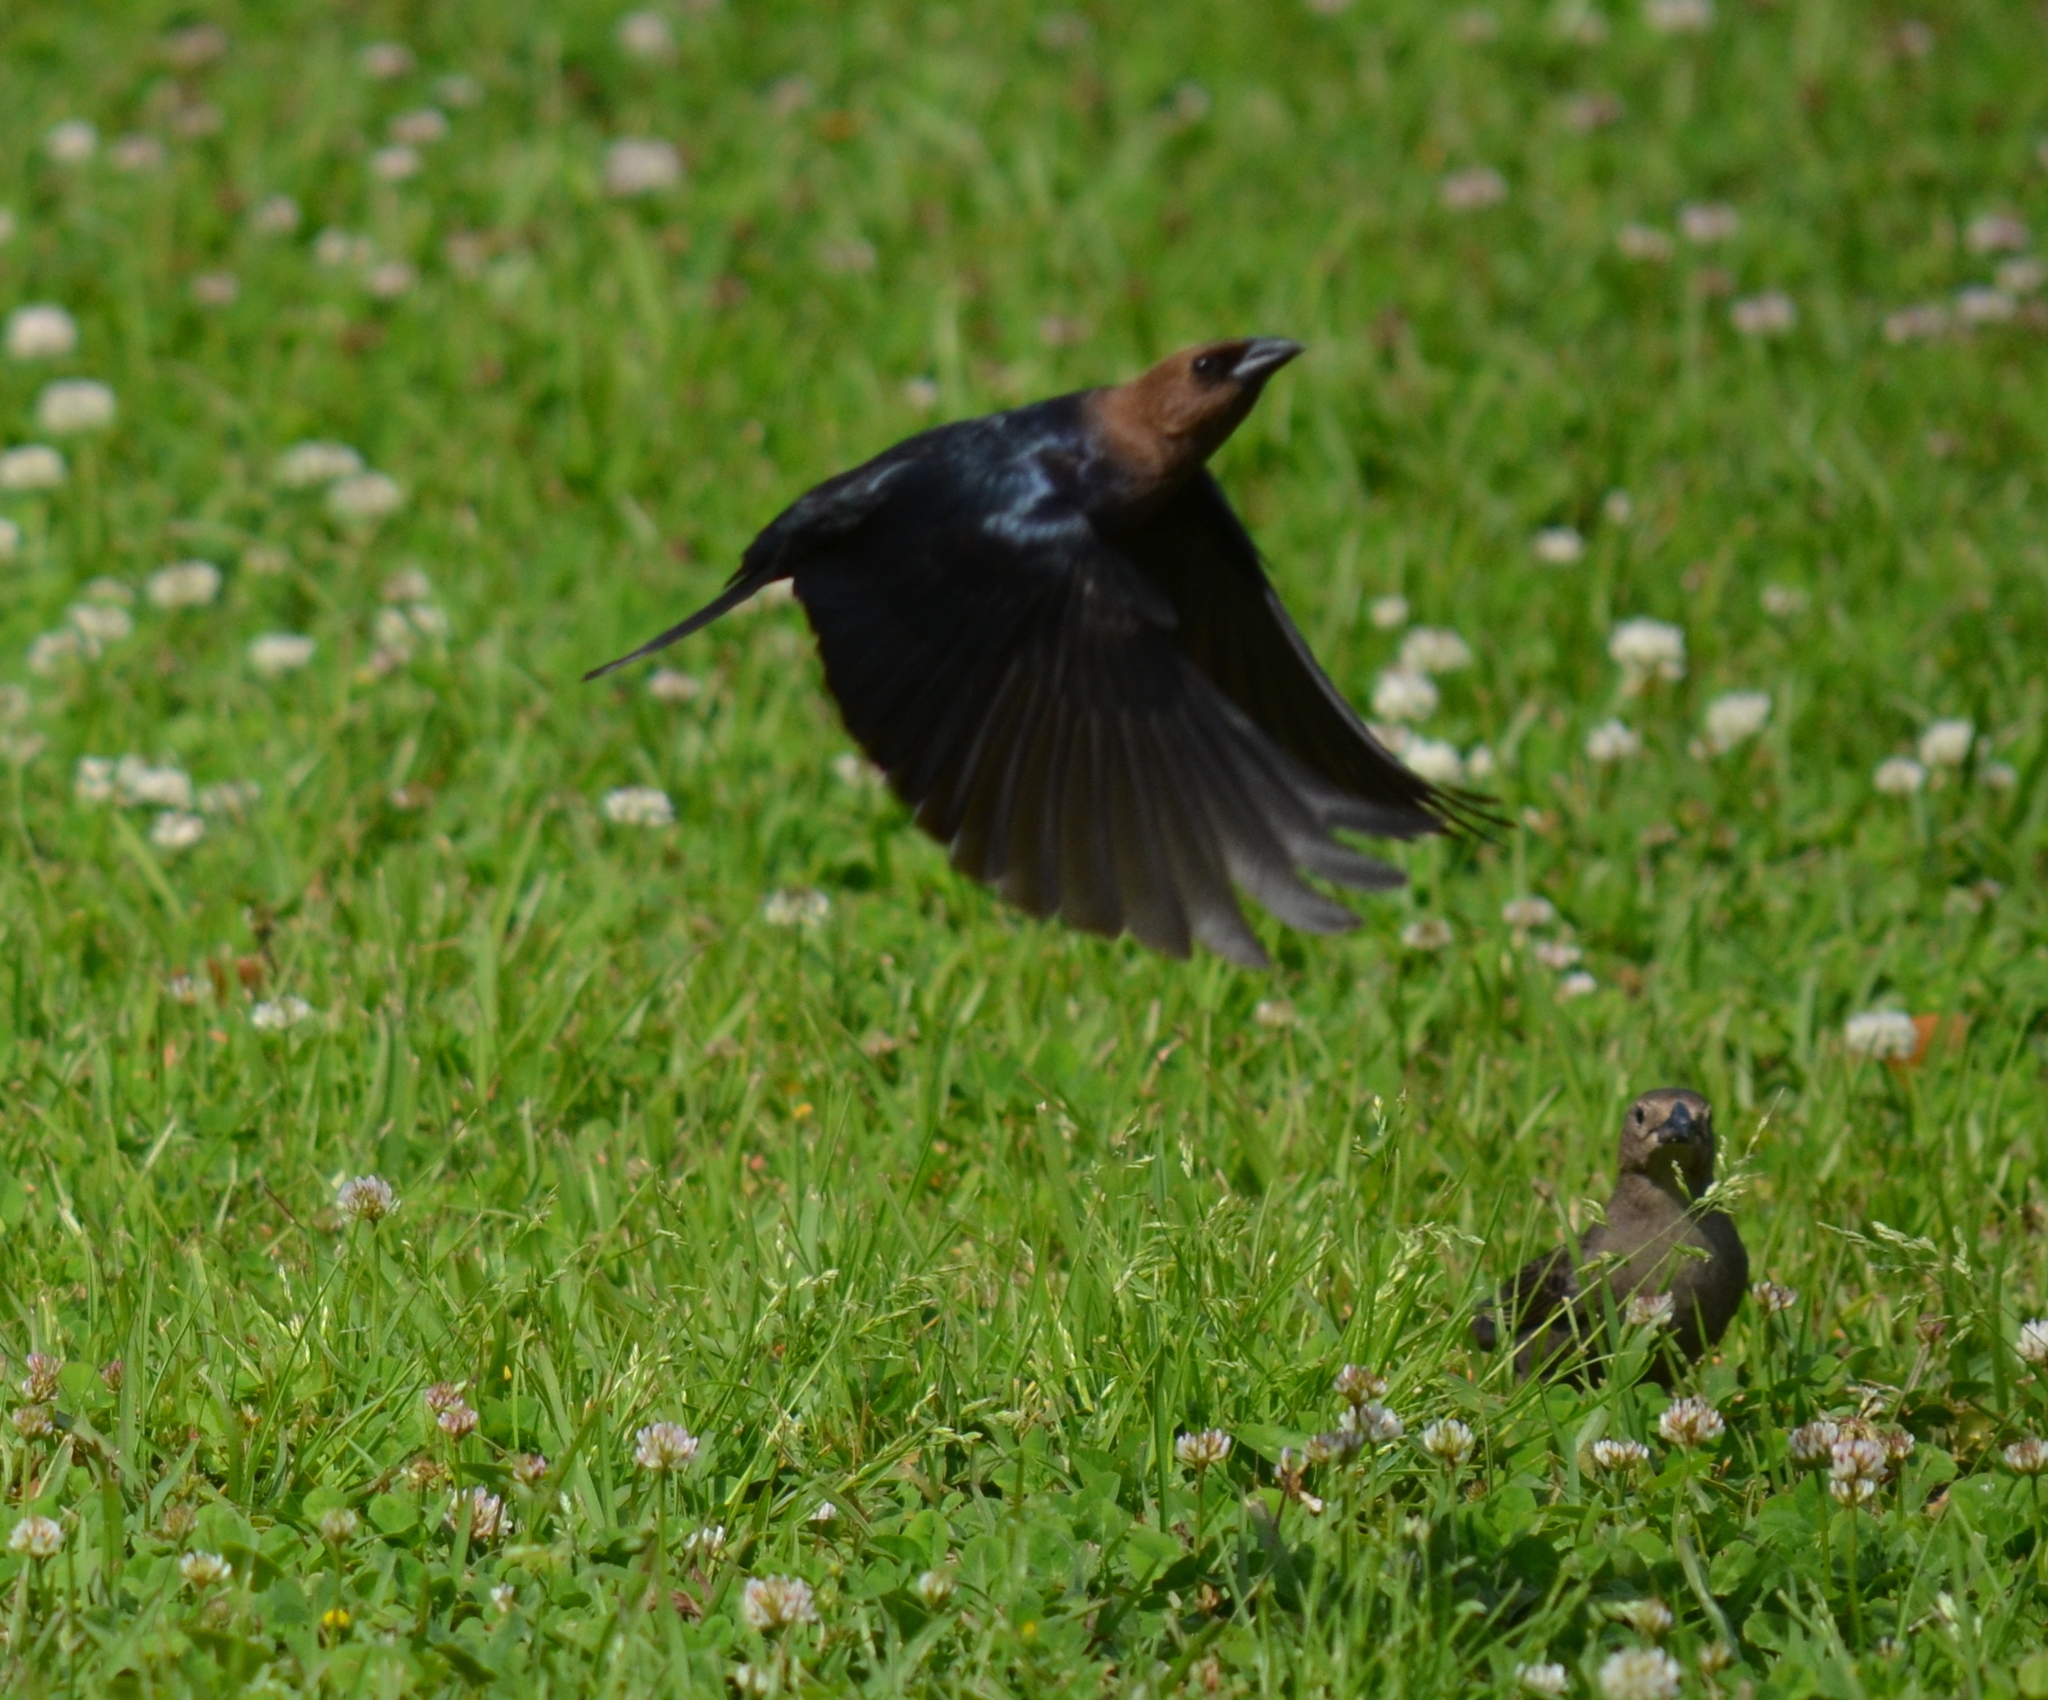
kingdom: Animalia
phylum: Chordata
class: Aves
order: Passeriformes
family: Icteridae
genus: Molothrus
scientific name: Molothrus ater
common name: Brown-headed cowbird
